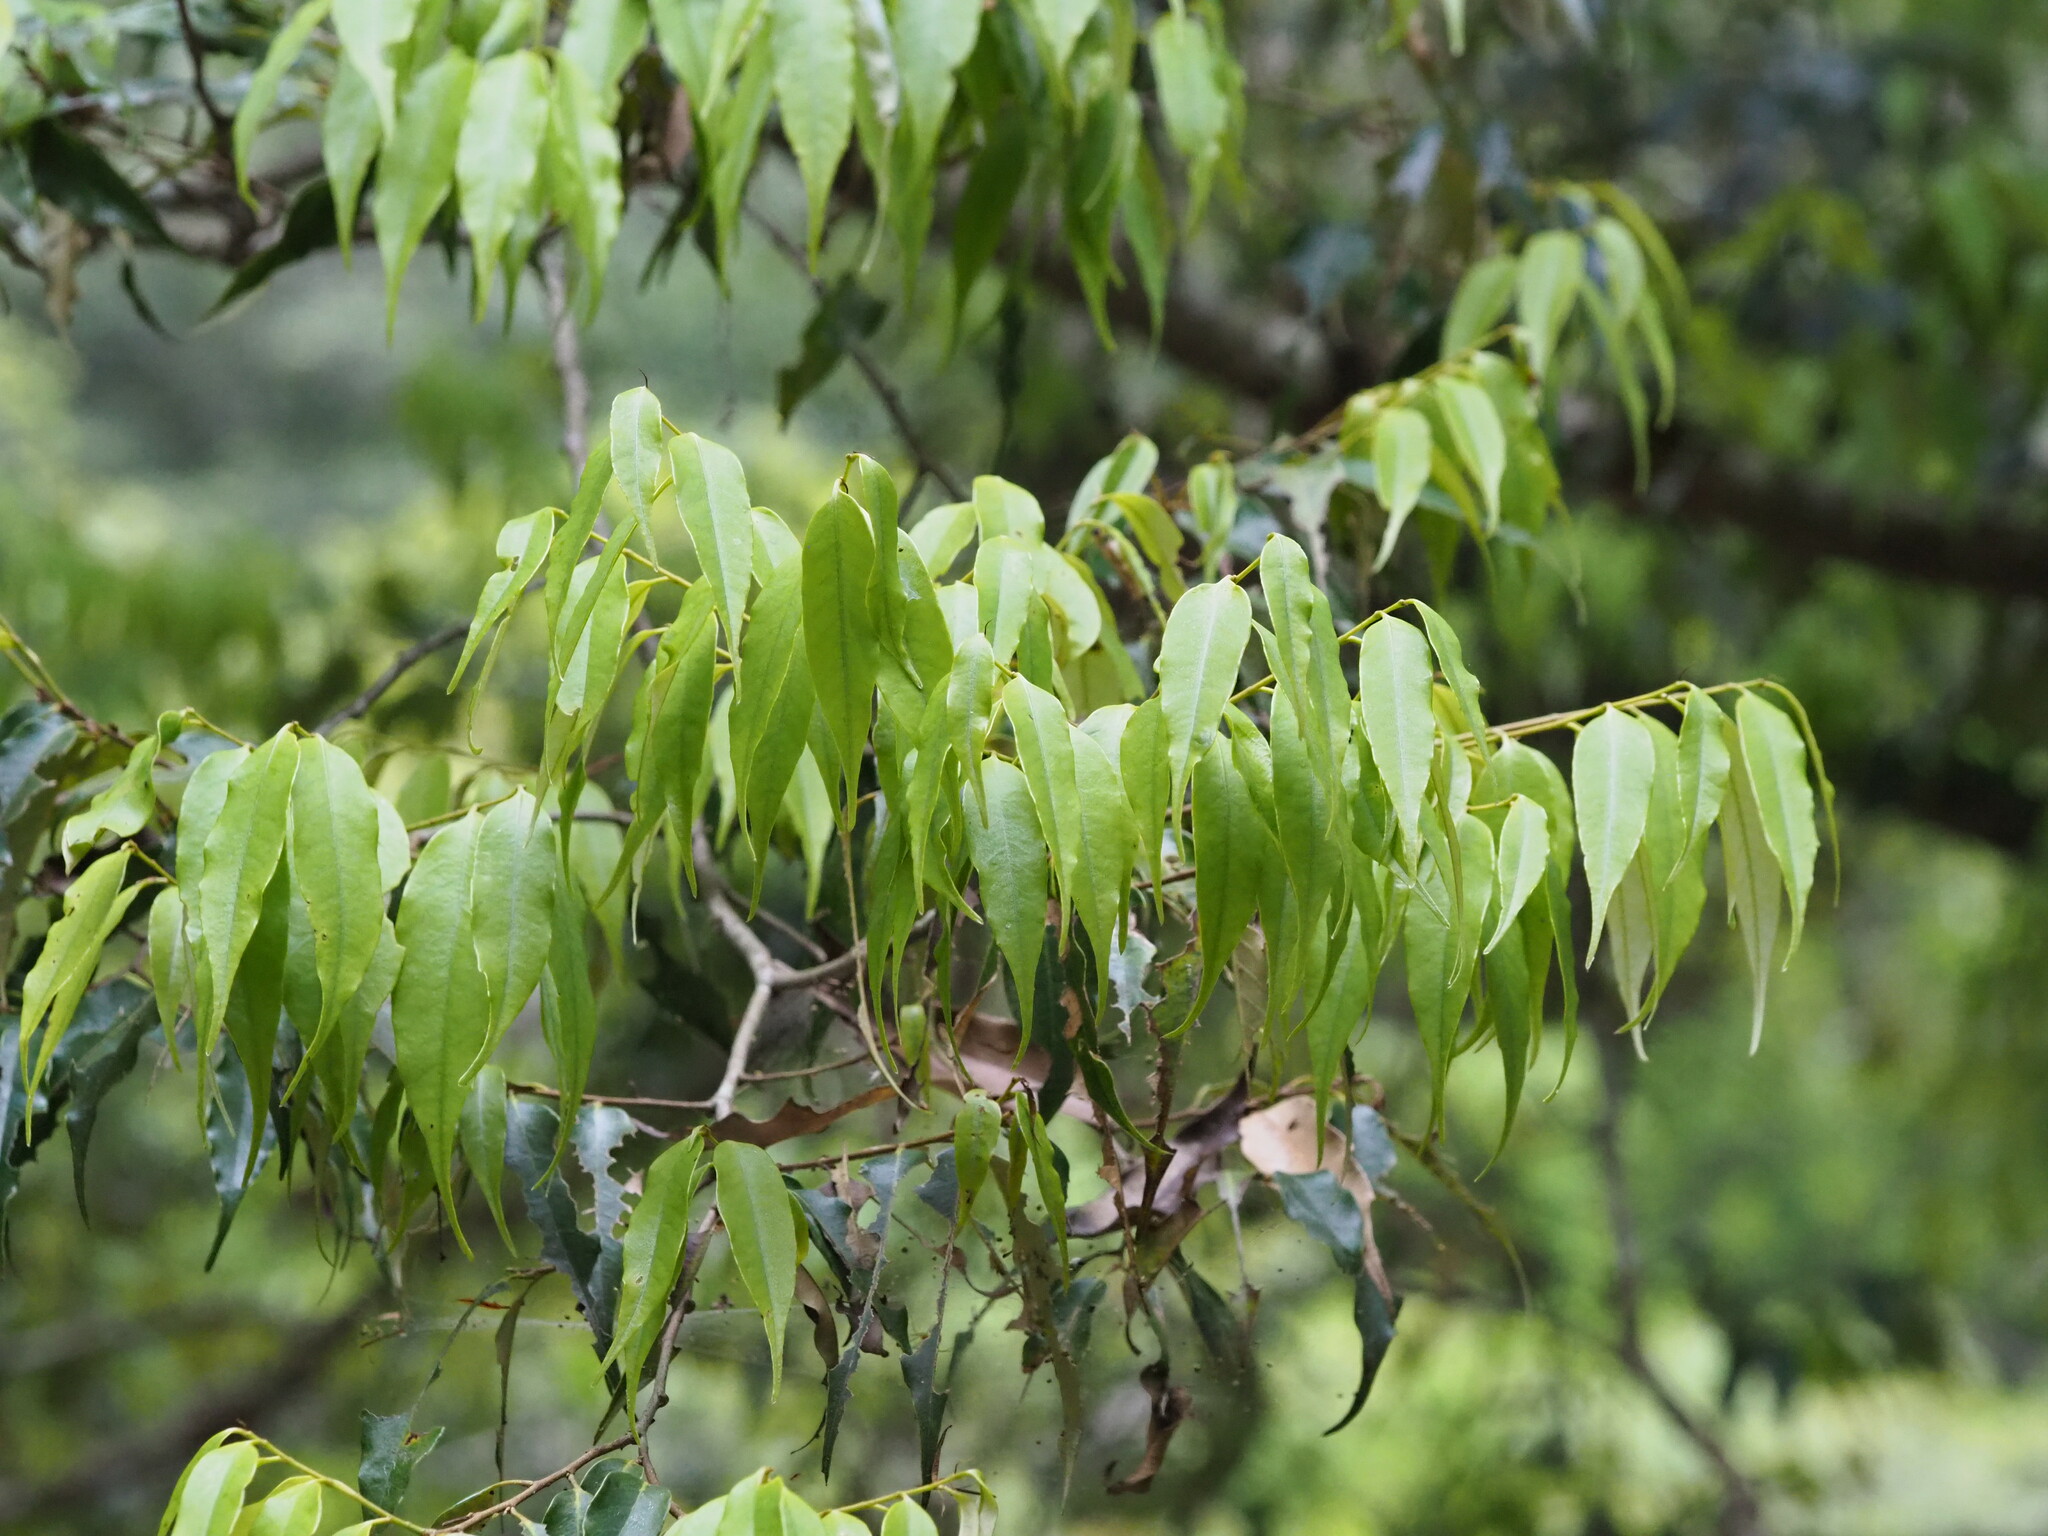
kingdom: Plantae
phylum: Tracheophyta
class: Magnoliopsida
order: Fagales
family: Fagaceae
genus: Castanopsis
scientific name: Castanopsis carlesii
